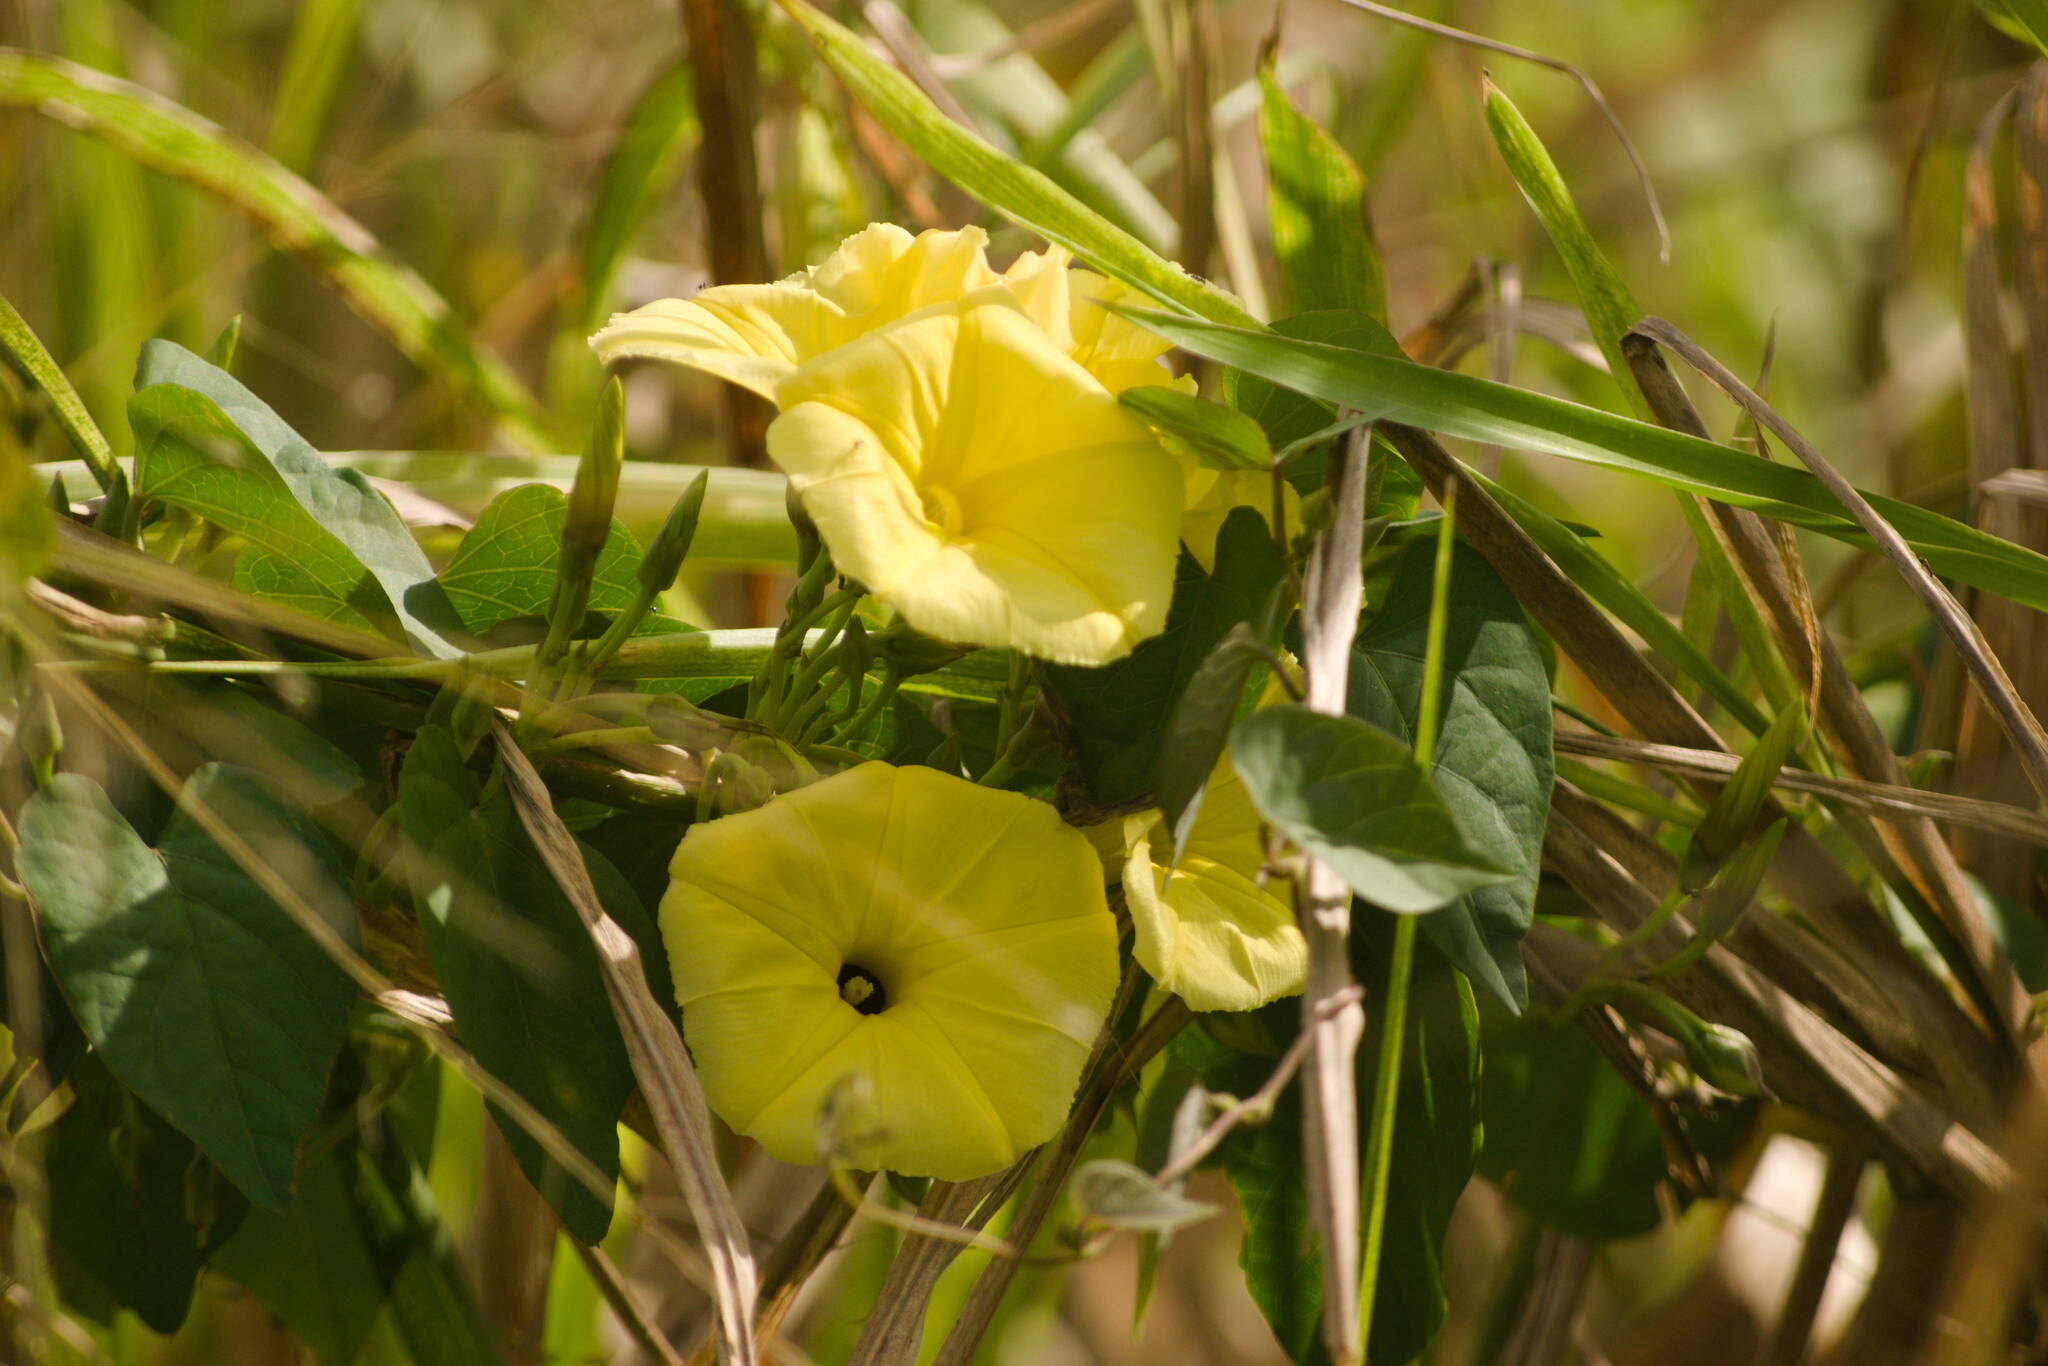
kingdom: Plantae
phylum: Tracheophyta
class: Magnoliopsida
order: Solanales
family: Convolvulaceae
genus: Ipomoea
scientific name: Ipomoea ochracea
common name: Fence morning-glory
